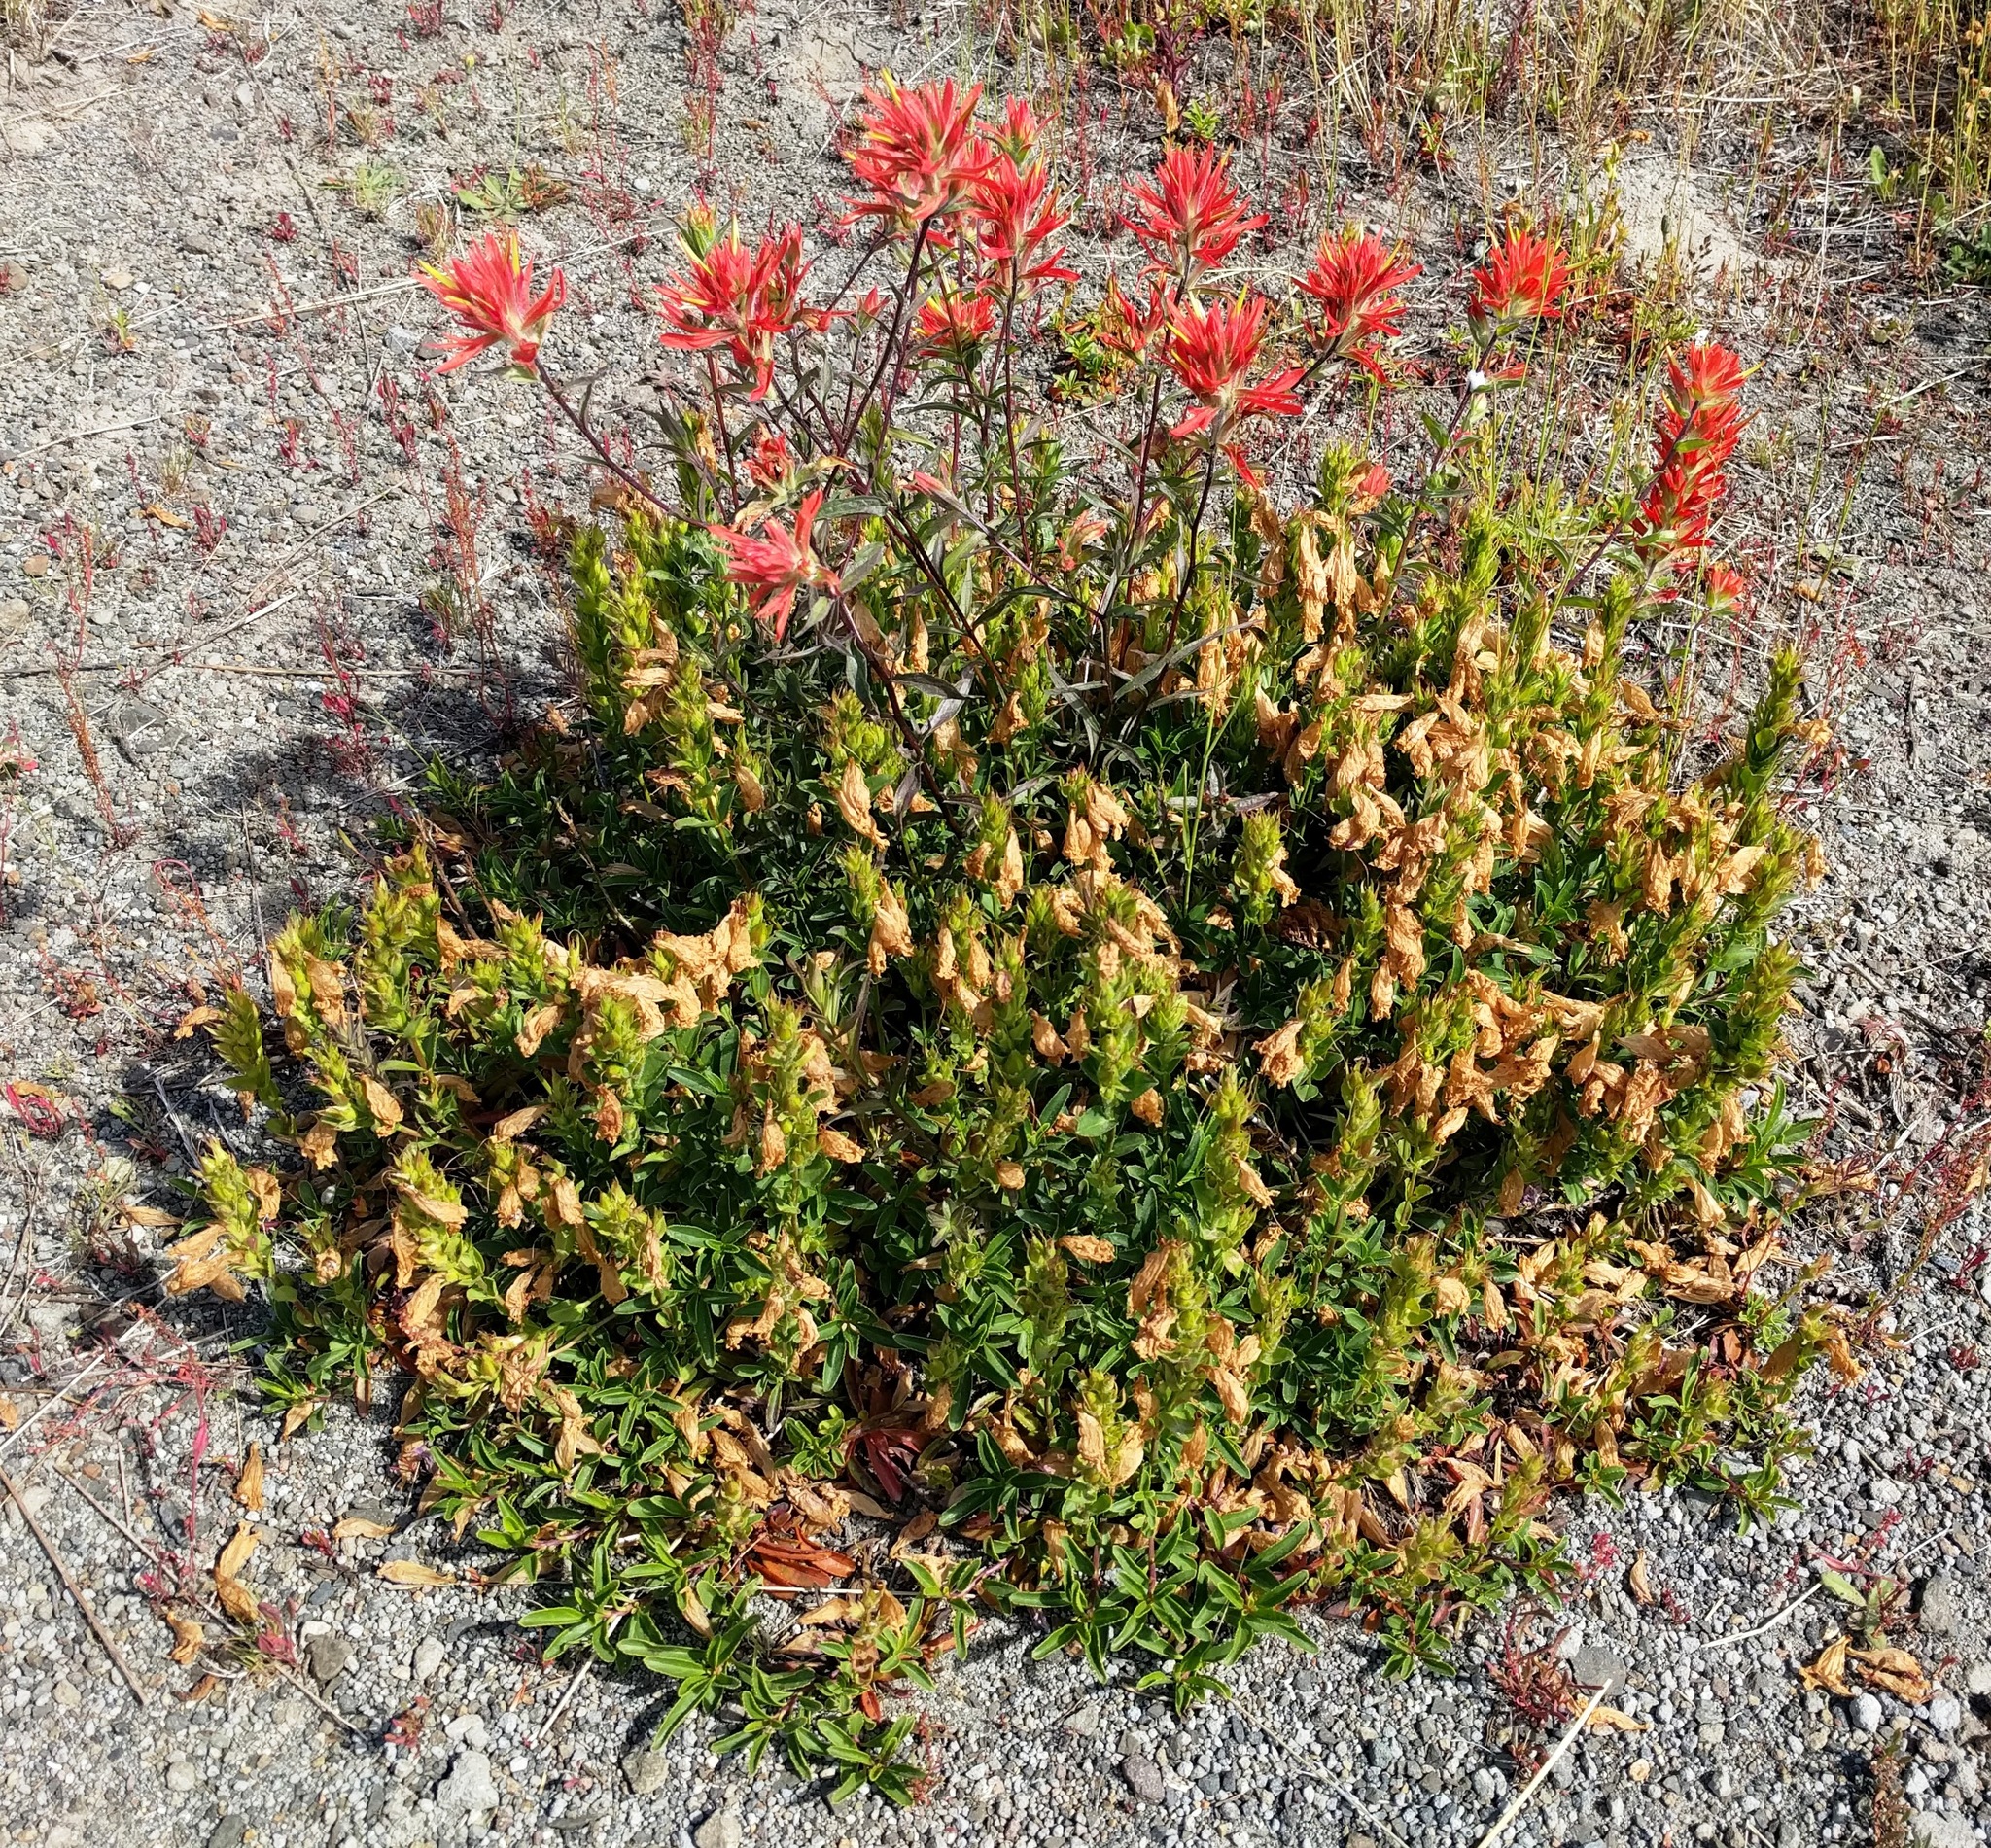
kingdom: Plantae
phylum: Tracheophyta
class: Magnoliopsida
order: Lamiales
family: Orobanchaceae
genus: Castilleja
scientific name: Castilleja miniata
